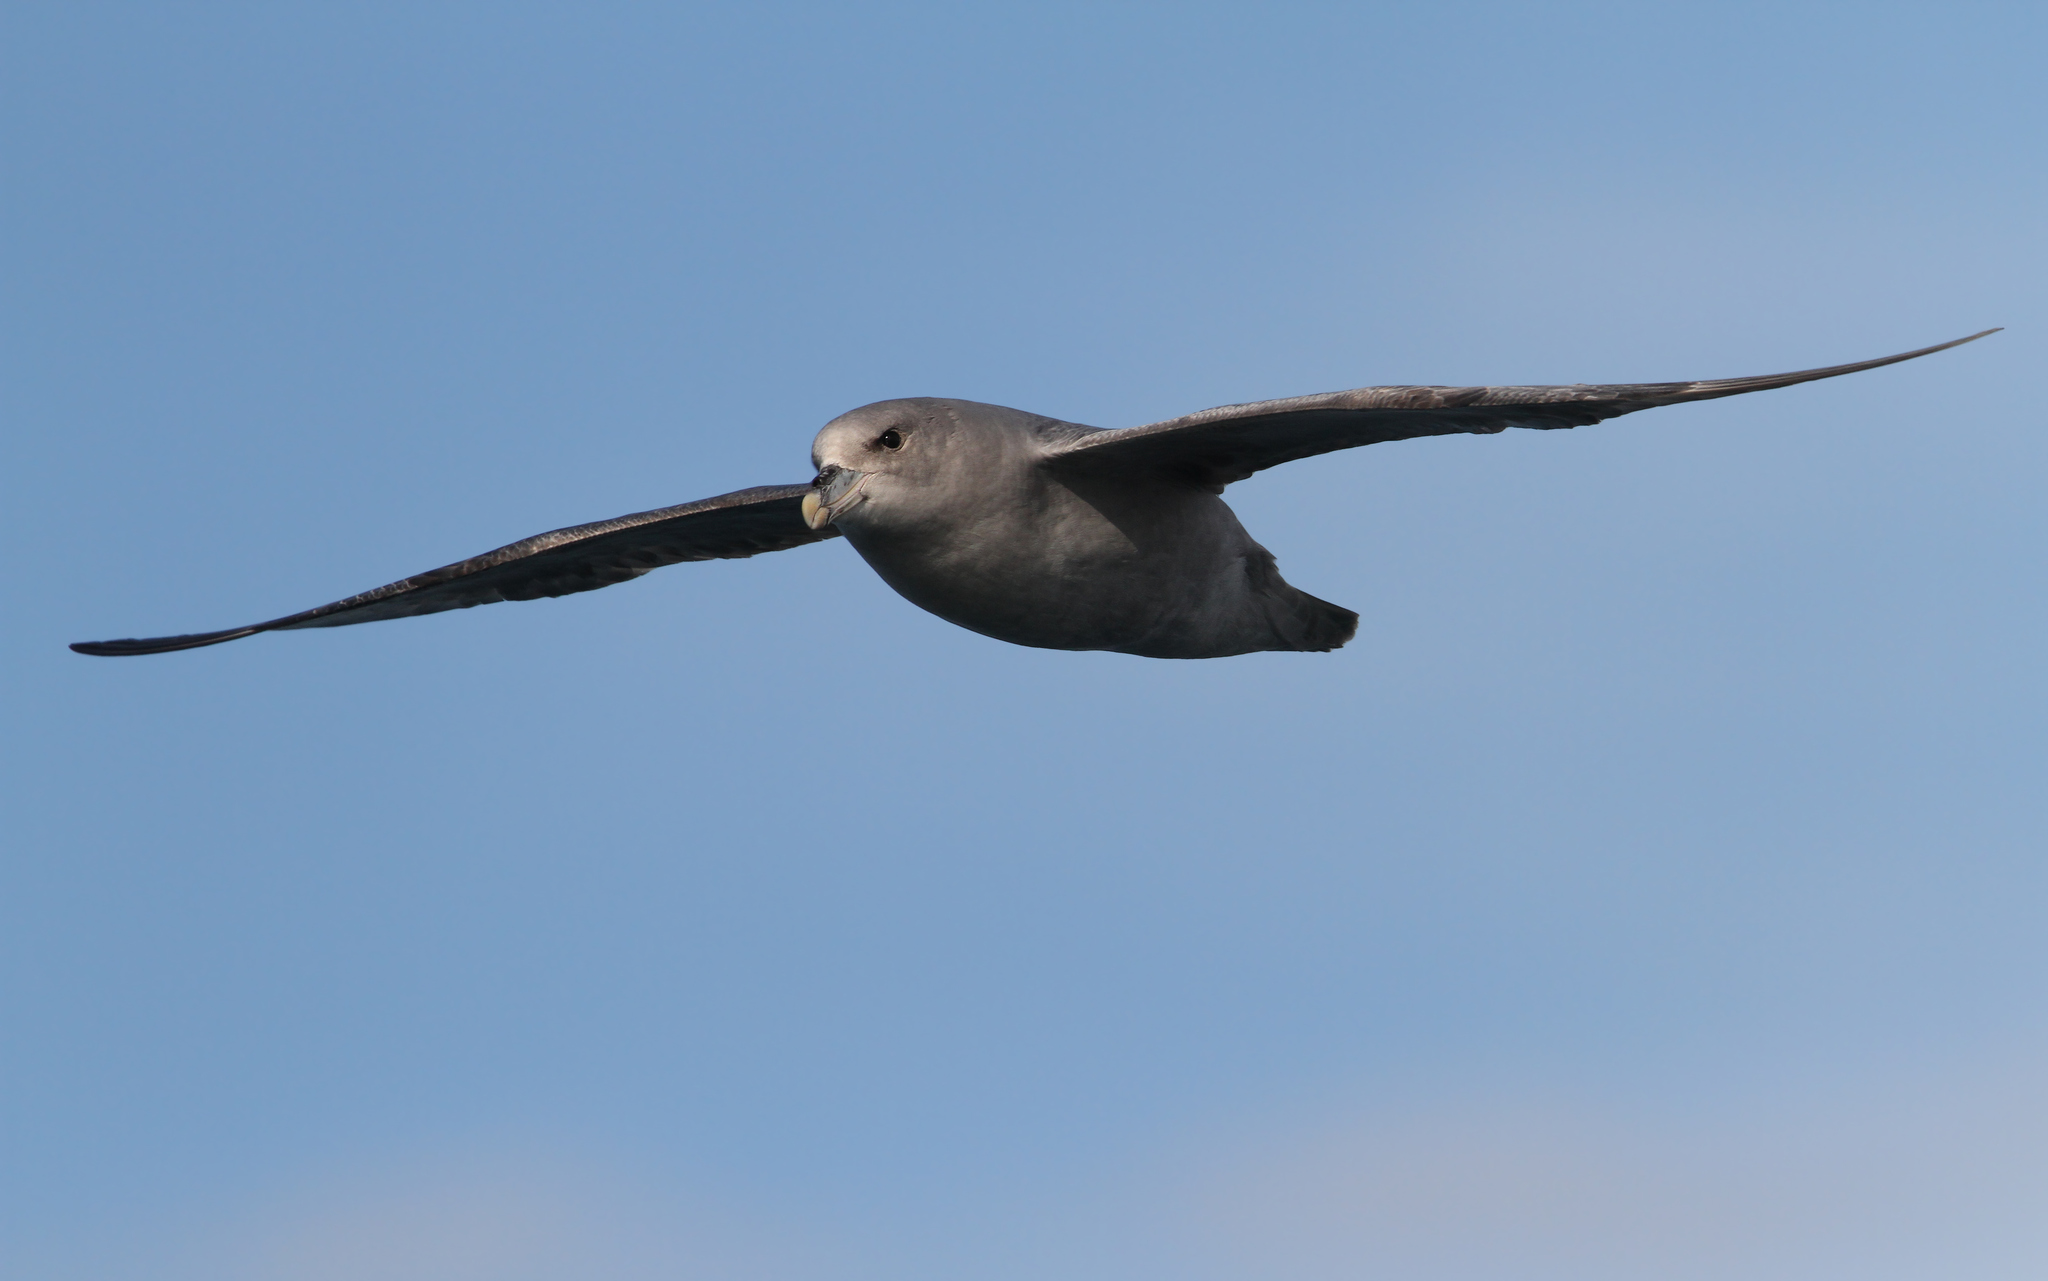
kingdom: Animalia
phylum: Chordata
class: Aves
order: Procellariiformes
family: Procellariidae
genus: Fulmarus
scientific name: Fulmarus glacialis
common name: Northern fulmar
